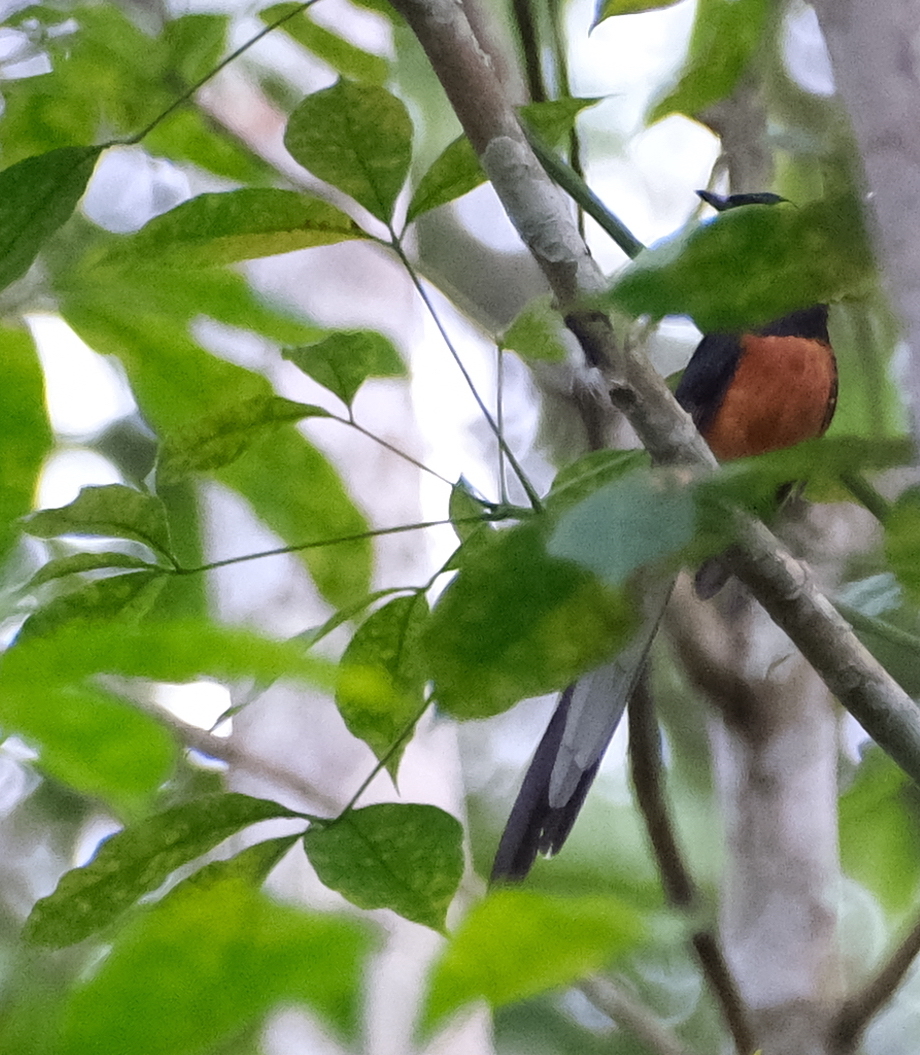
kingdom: Animalia
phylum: Chordata
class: Aves
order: Passeriformes
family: Muscicapidae
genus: Copsychus
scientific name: Copsychus malabaricus
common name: White-rumped shama
